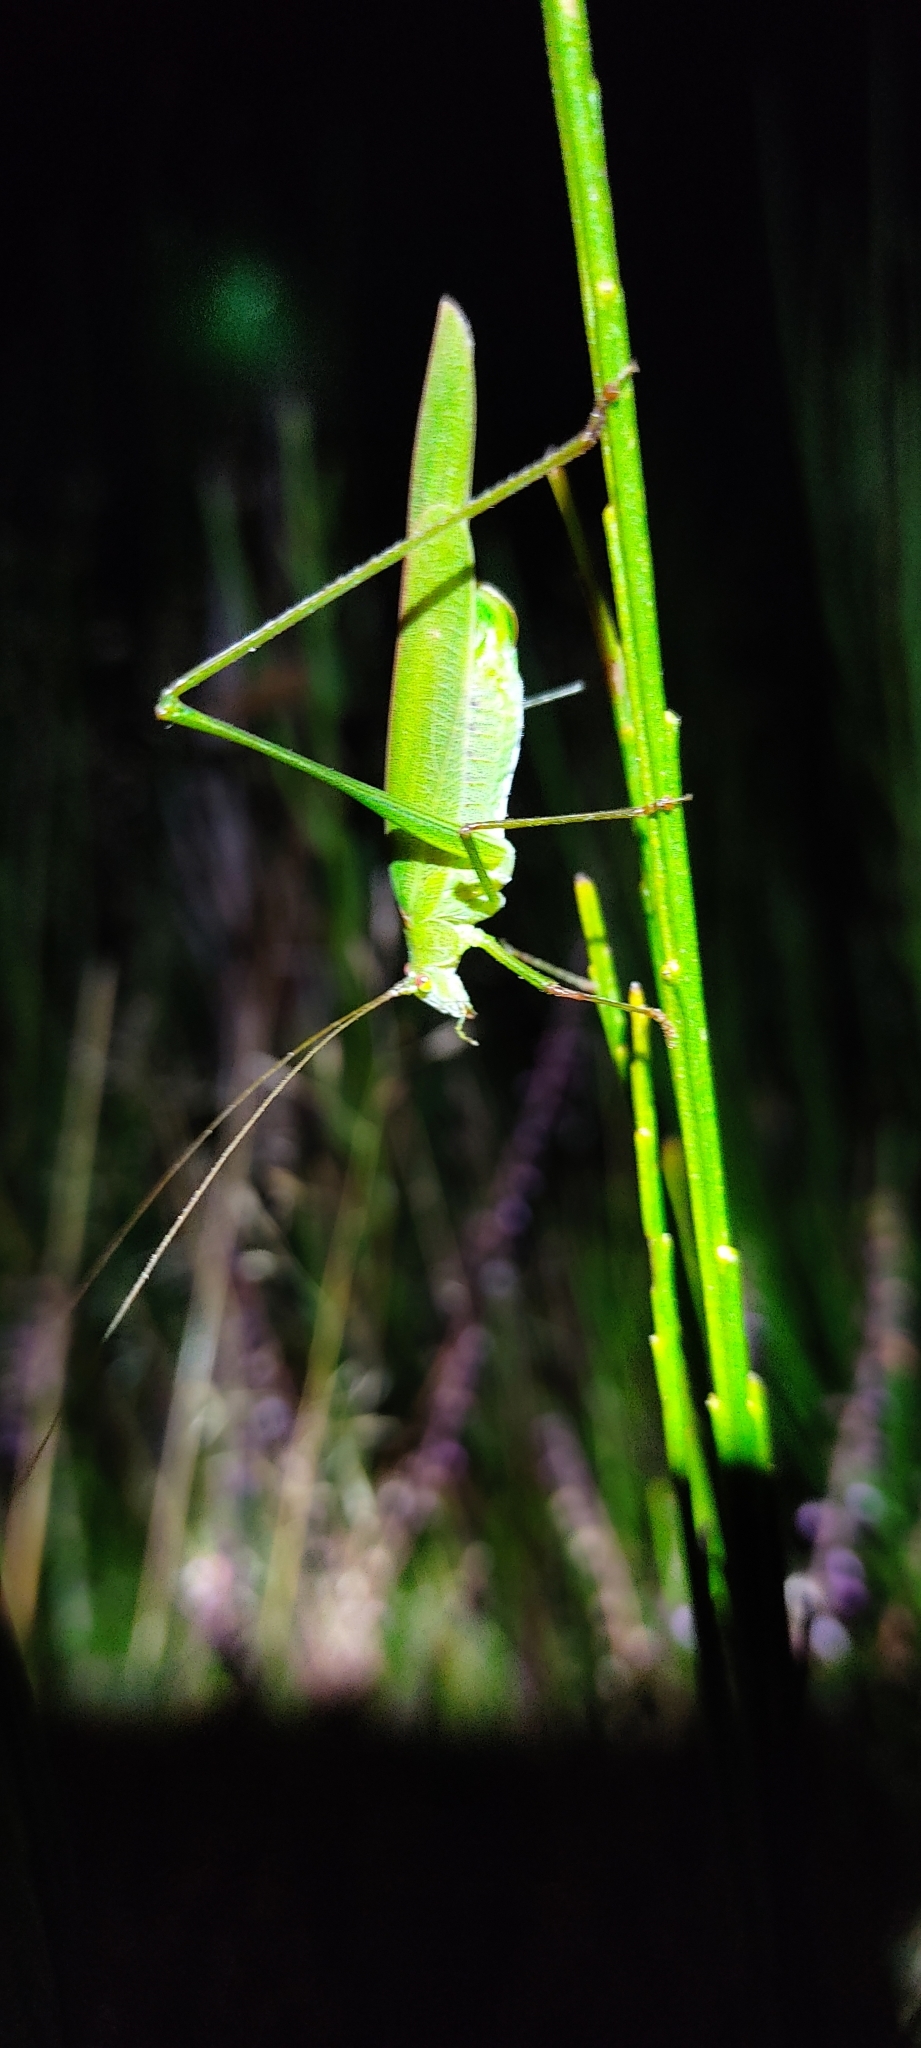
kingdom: Animalia
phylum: Arthropoda
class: Insecta
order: Orthoptera
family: Tettigoniidae
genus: Phaneroptera
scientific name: Phaneroptera falcata
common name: Sickle-bearing bush-cricket
